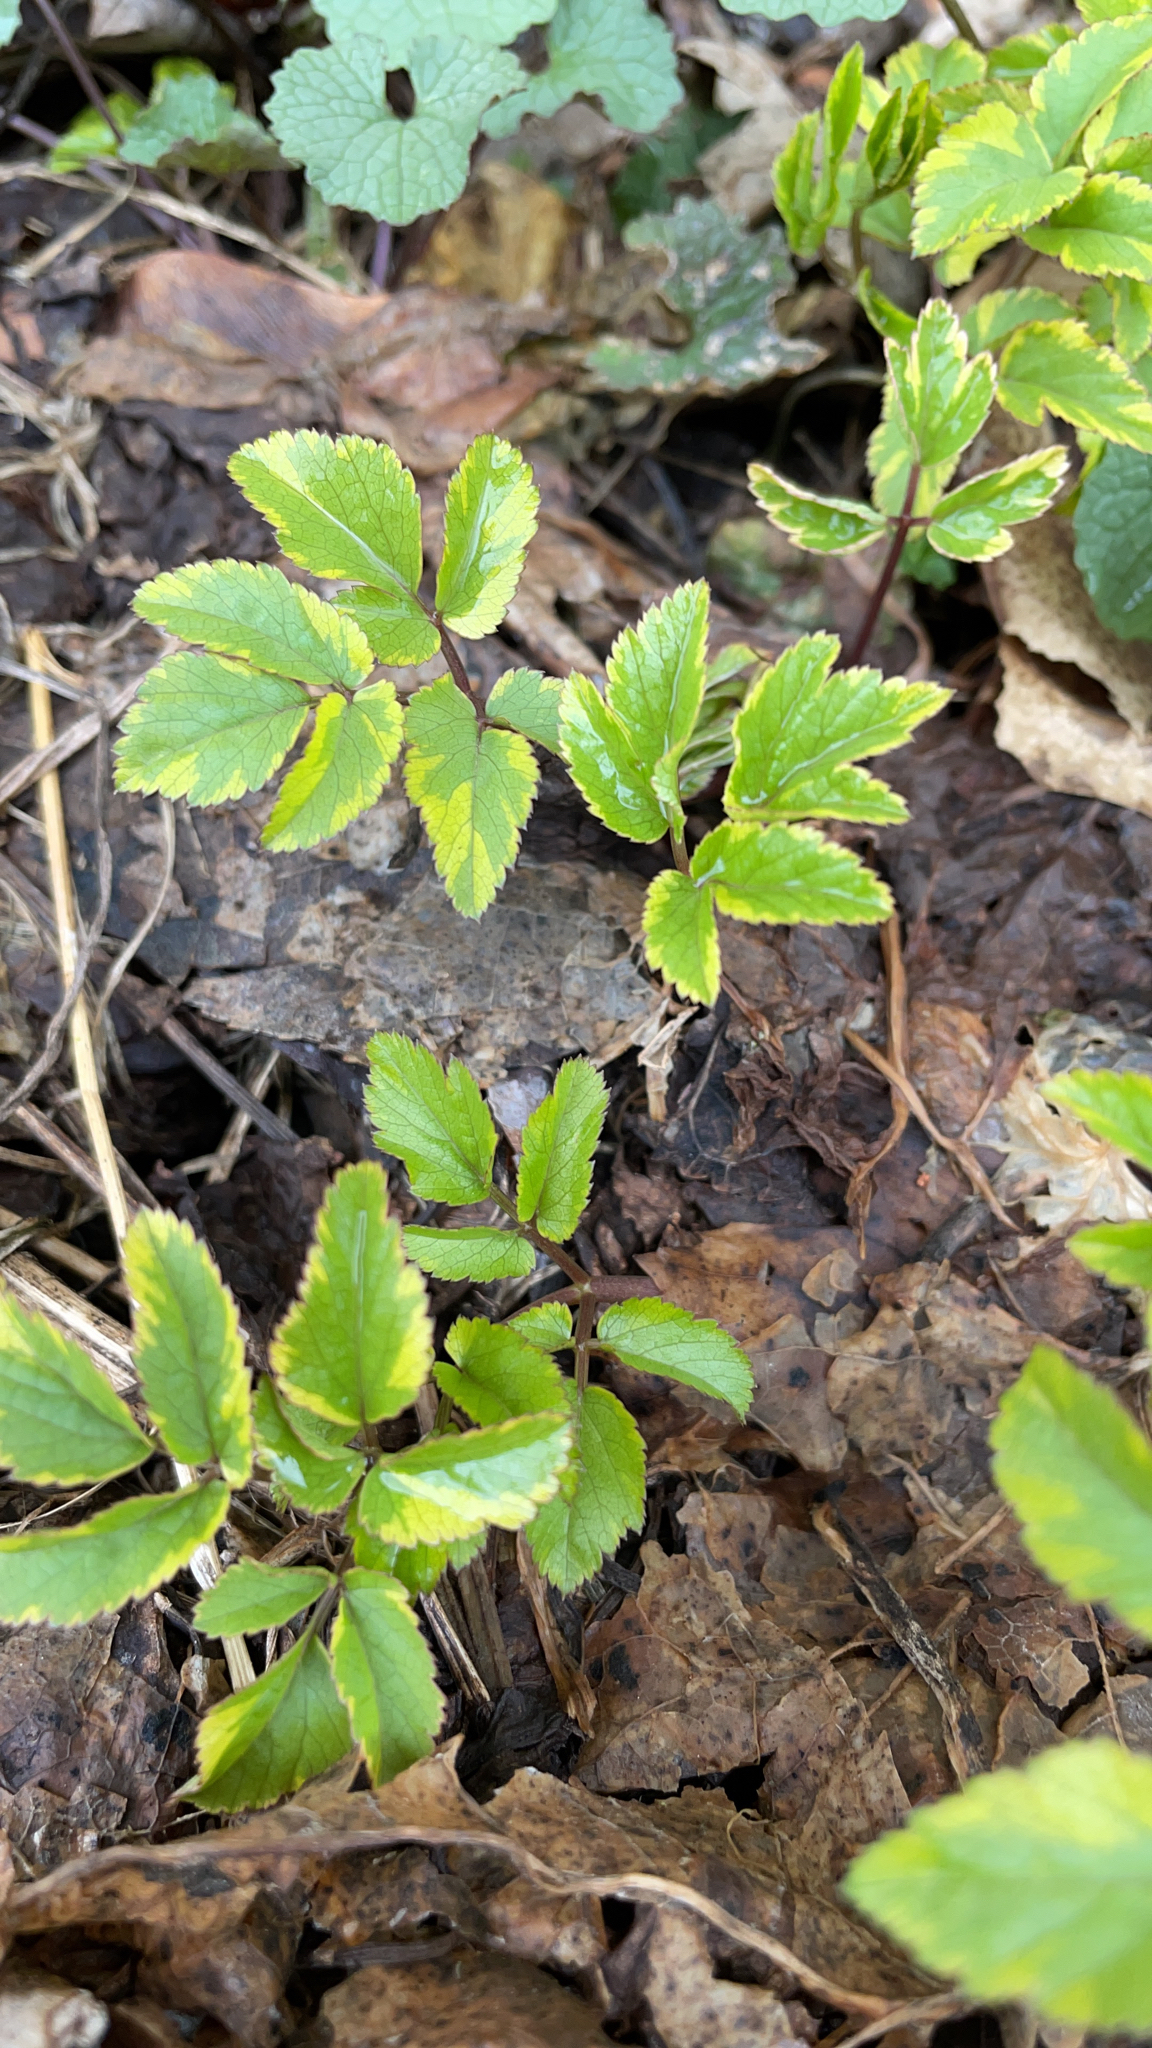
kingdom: Plantae
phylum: Tracheophyta
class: Magnoliopsida
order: Apiales
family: Apiaceae
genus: Aegopodium
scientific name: Aegopodium podagraria
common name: Ground-elder
